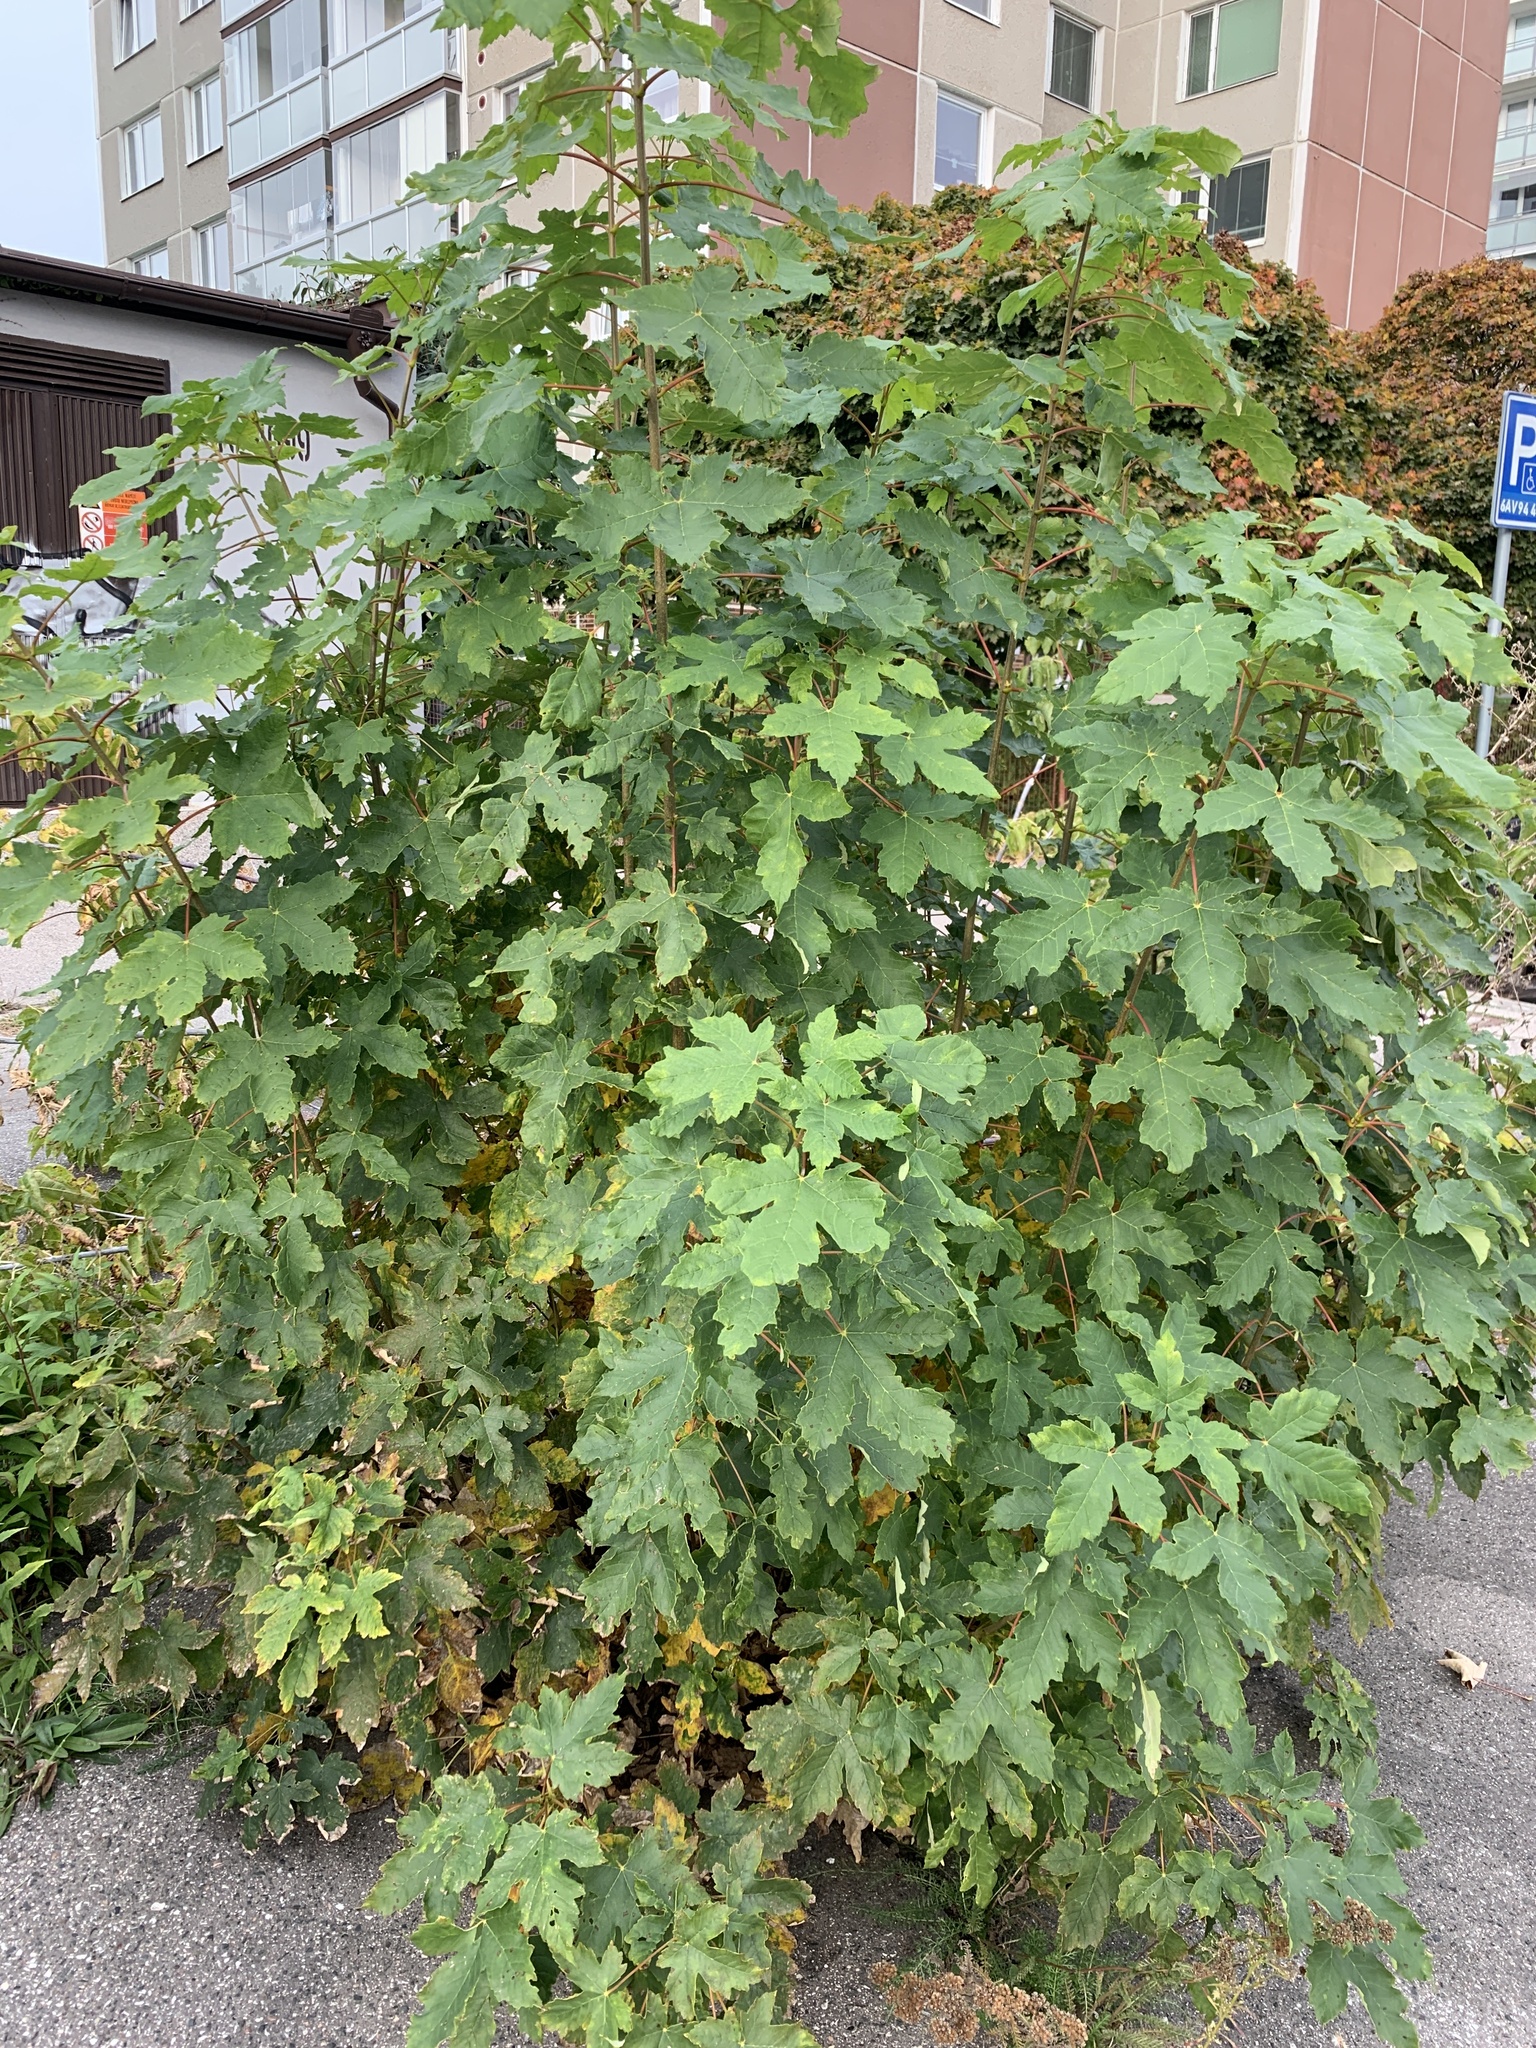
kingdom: Plantae
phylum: Tracheophyta
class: Magnoliopsida
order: Sapindales
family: Sapindaceae
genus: Acer
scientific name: Acer pseudoplatanus
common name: Sycamore
